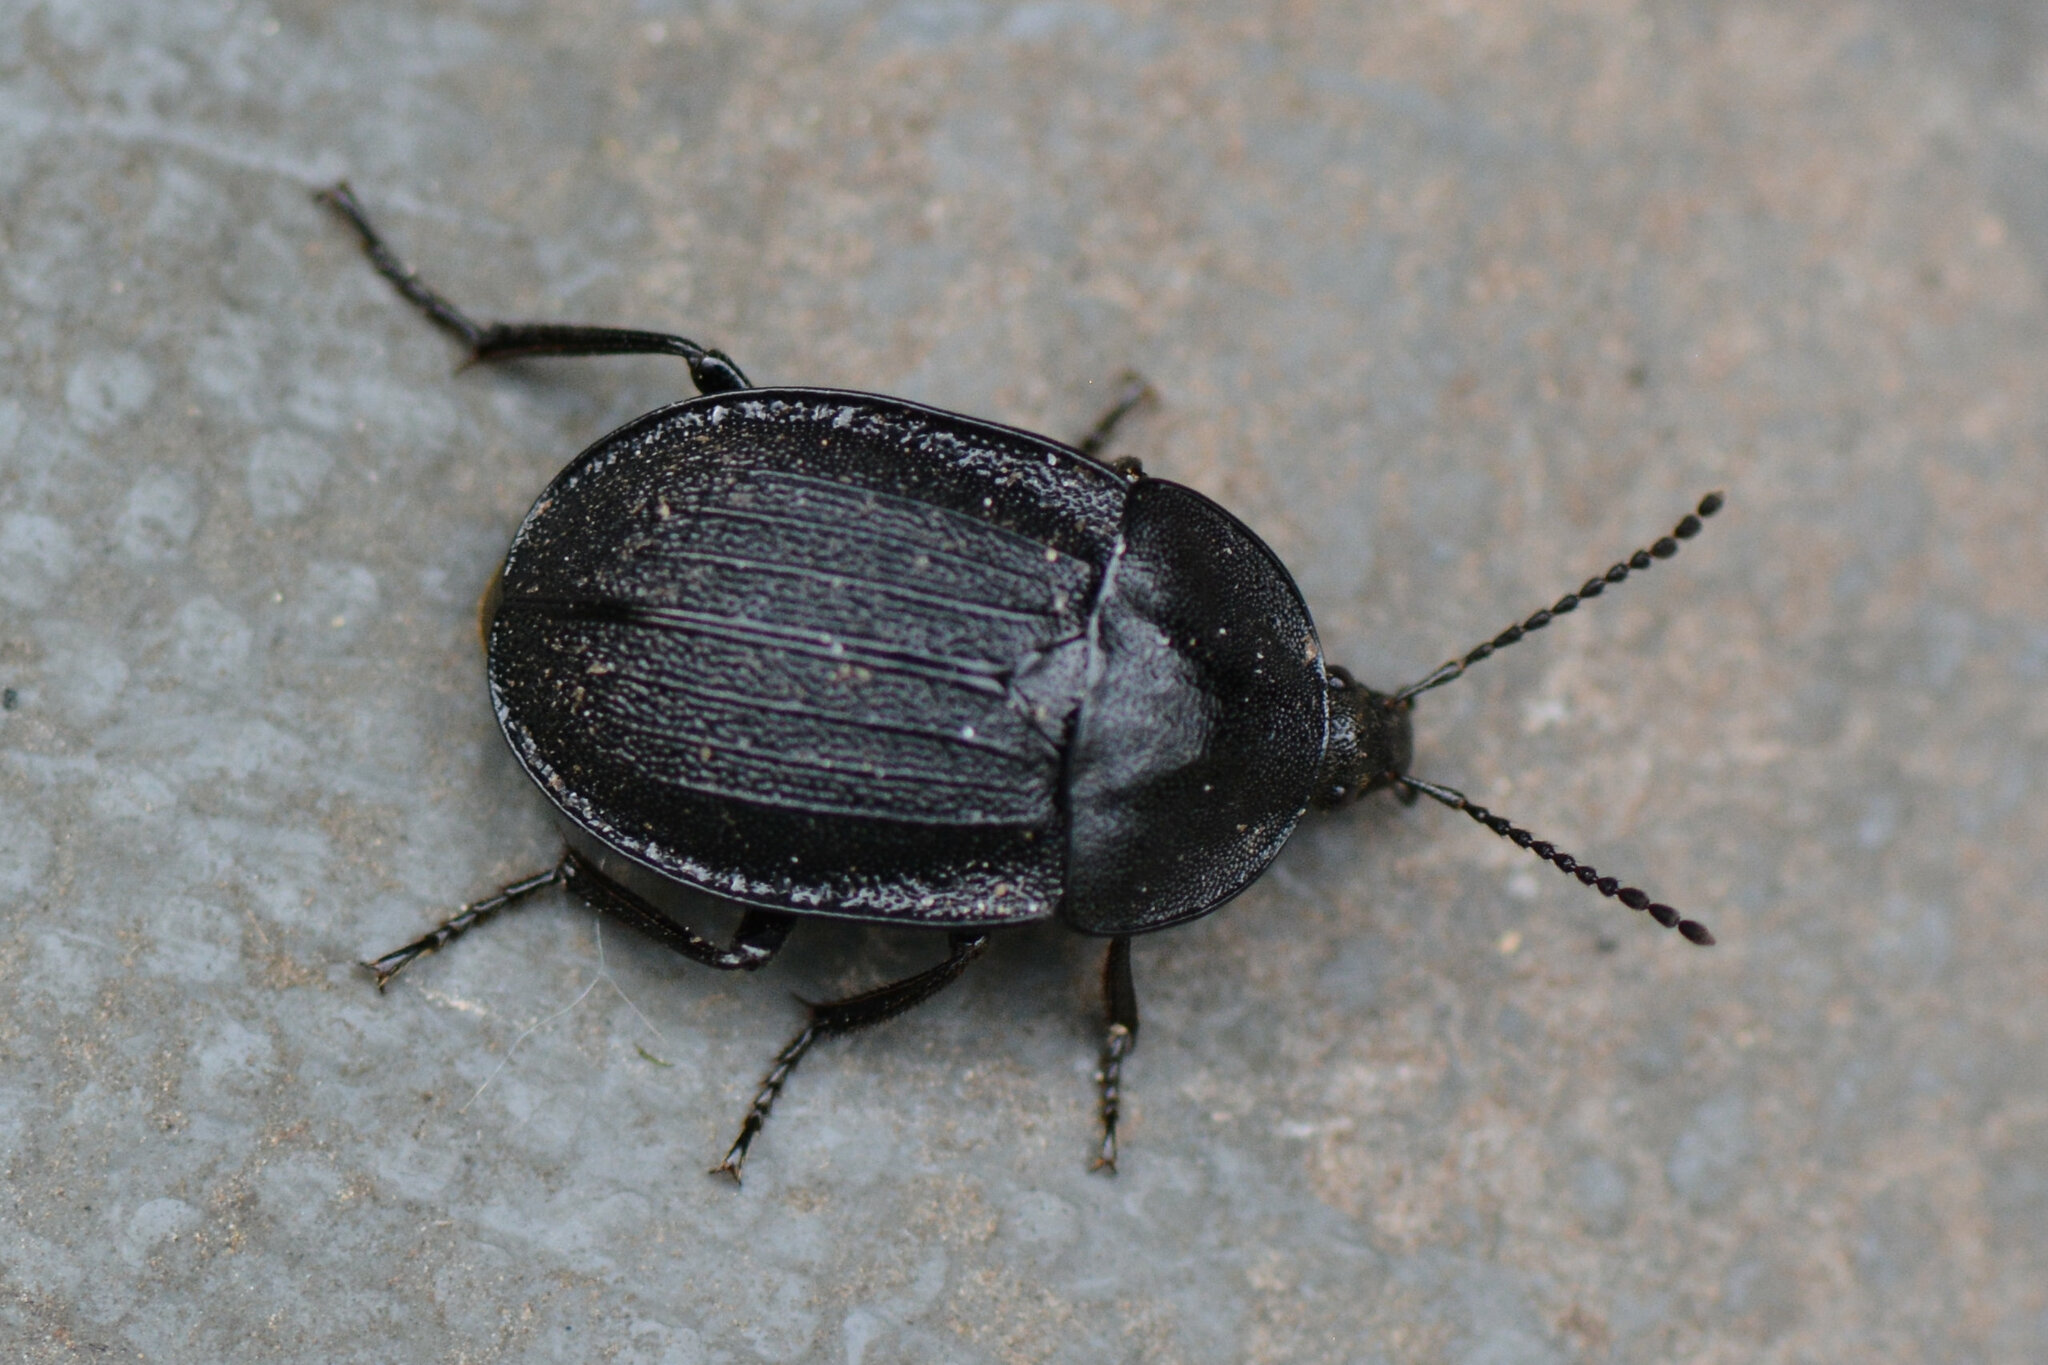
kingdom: Animalia
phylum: Arthropoda
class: Insecta
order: Coleoptera
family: Staphylinidae
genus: Silpha
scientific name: Silpha atrata
